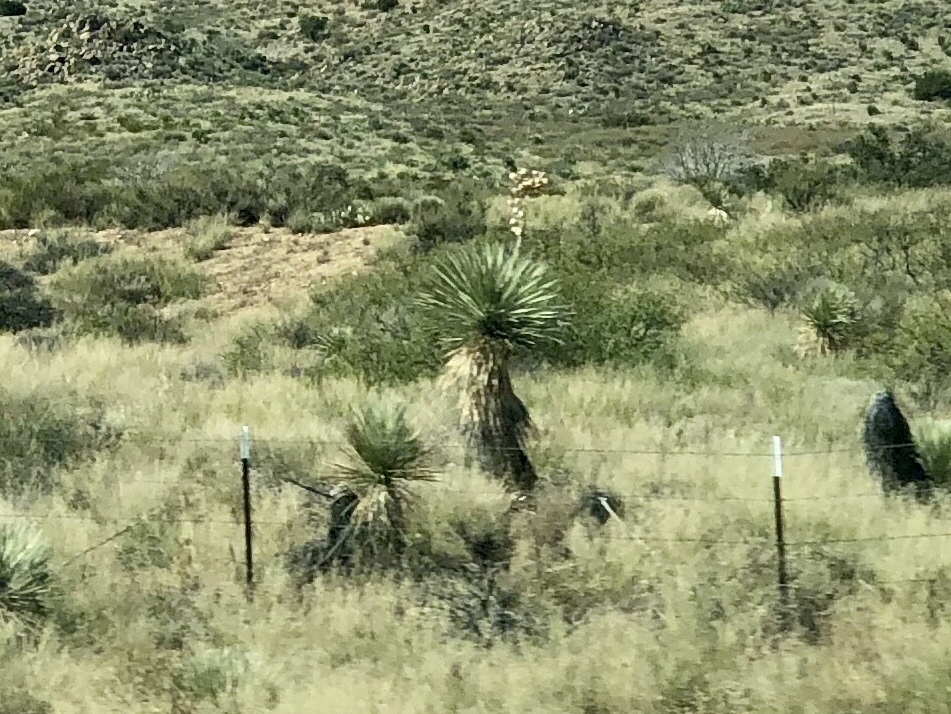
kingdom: Plantae
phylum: Tracheophyta
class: Liliopsida
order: Asparagales
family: Asparagaceae
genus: Yucca
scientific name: Yucca elata
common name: Palmella
